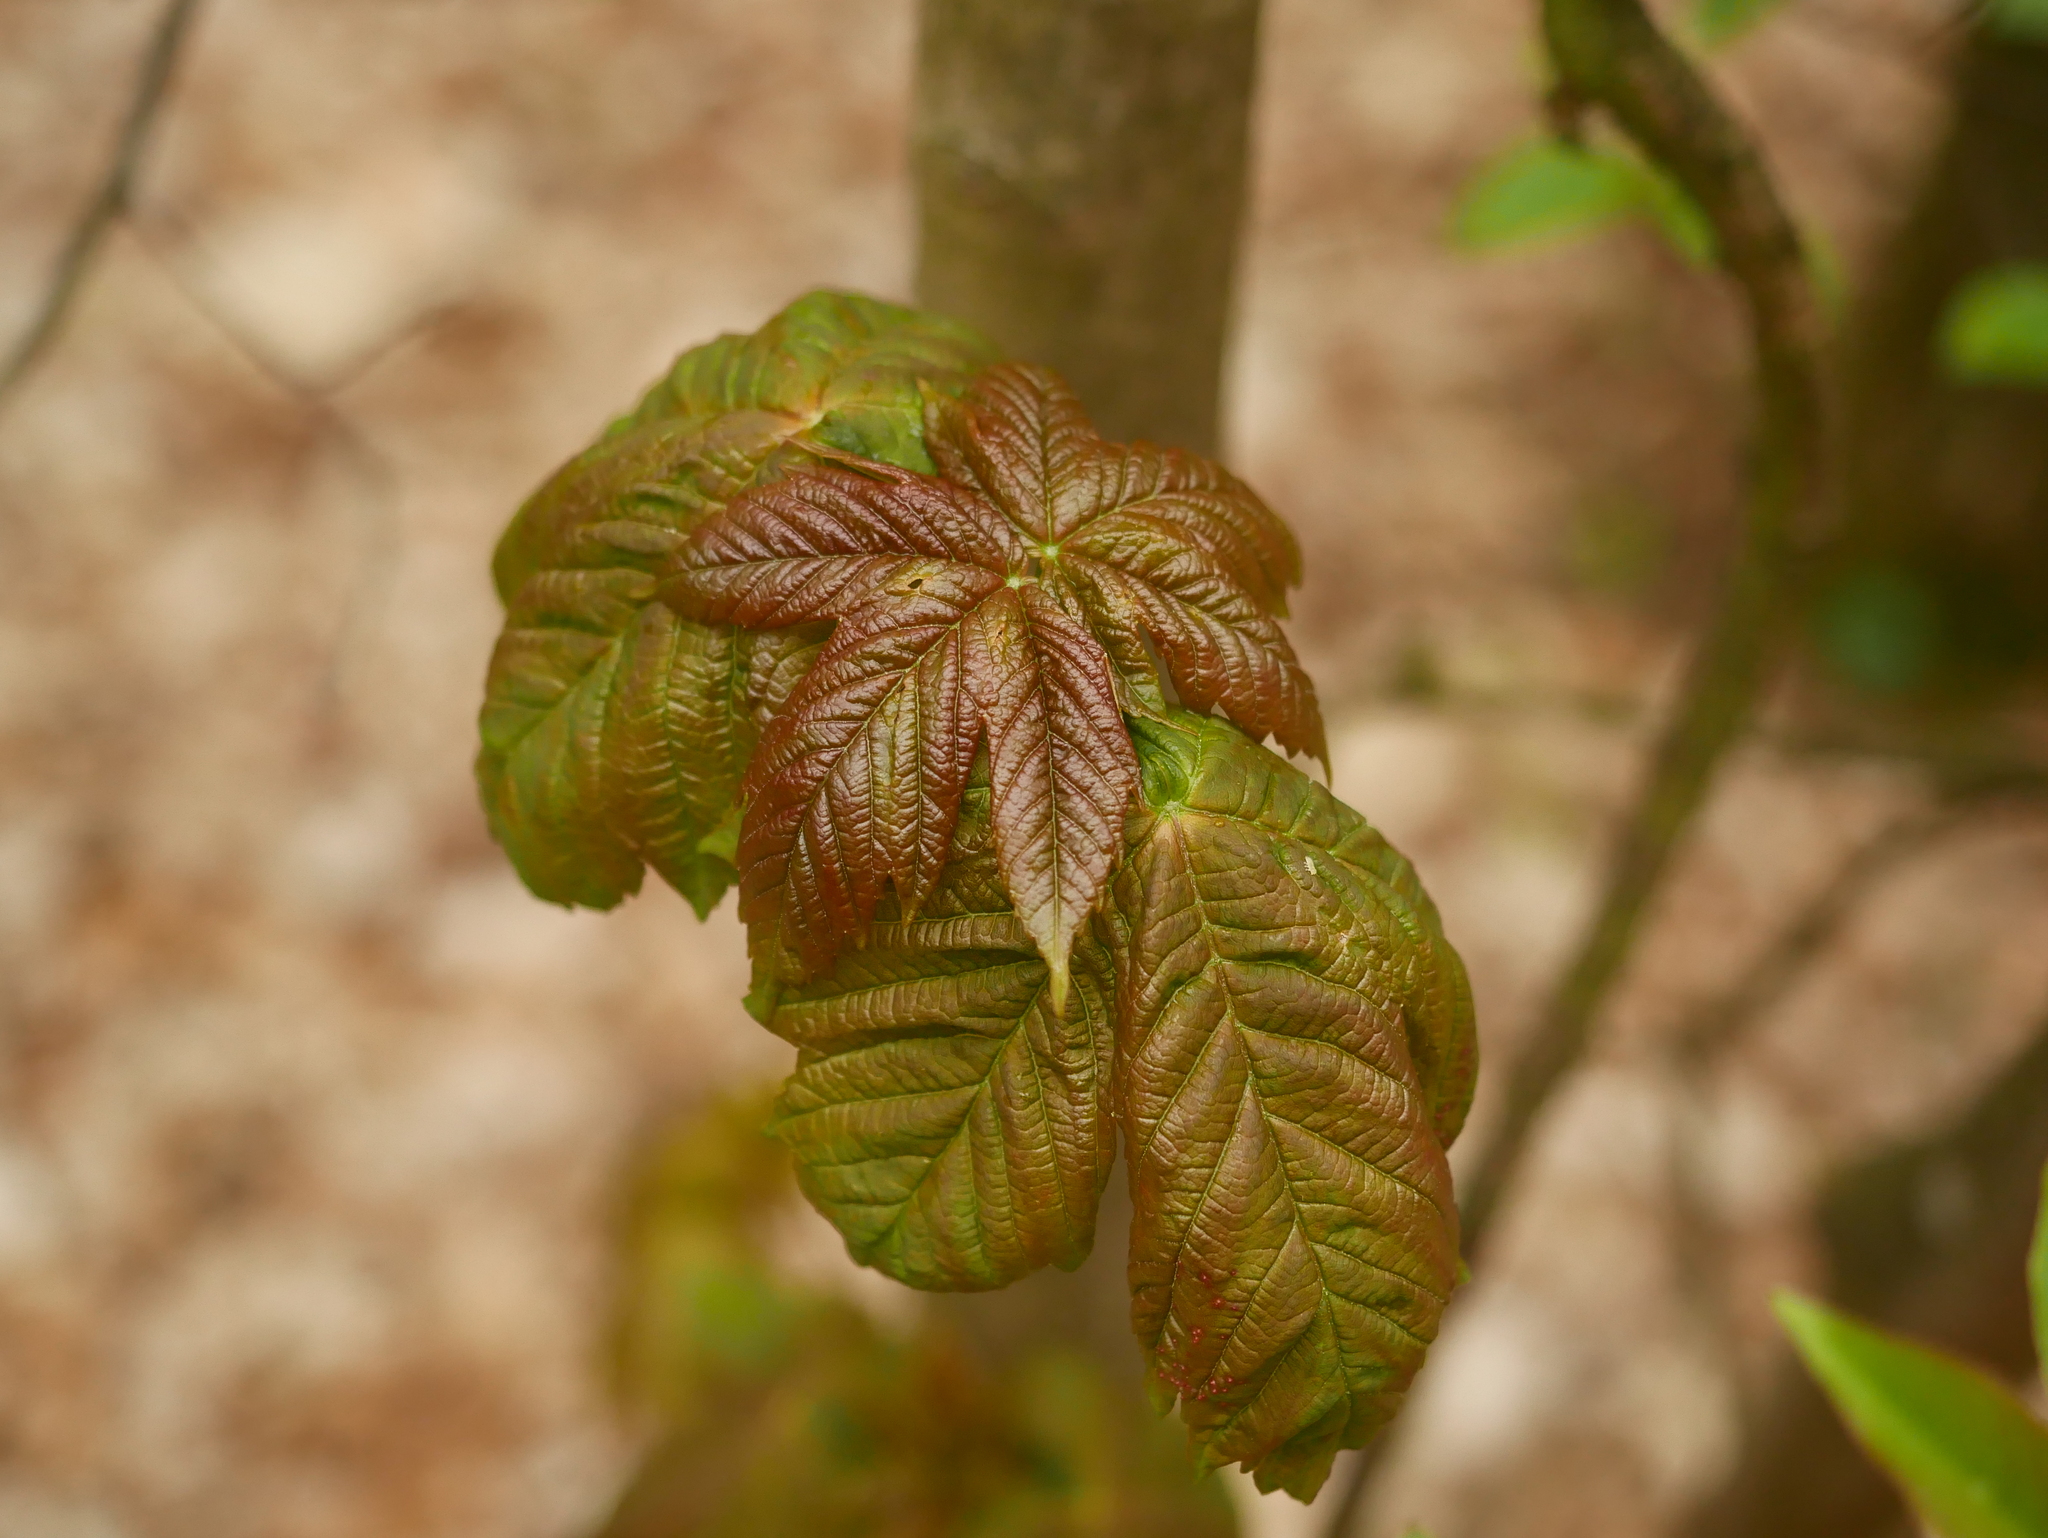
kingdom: Plantae
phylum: Tracheophyta
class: Magnoliopsida
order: Sapindales
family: Sapindaceae
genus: Acer
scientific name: Acer pseudoplatanus
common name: Sycamore
